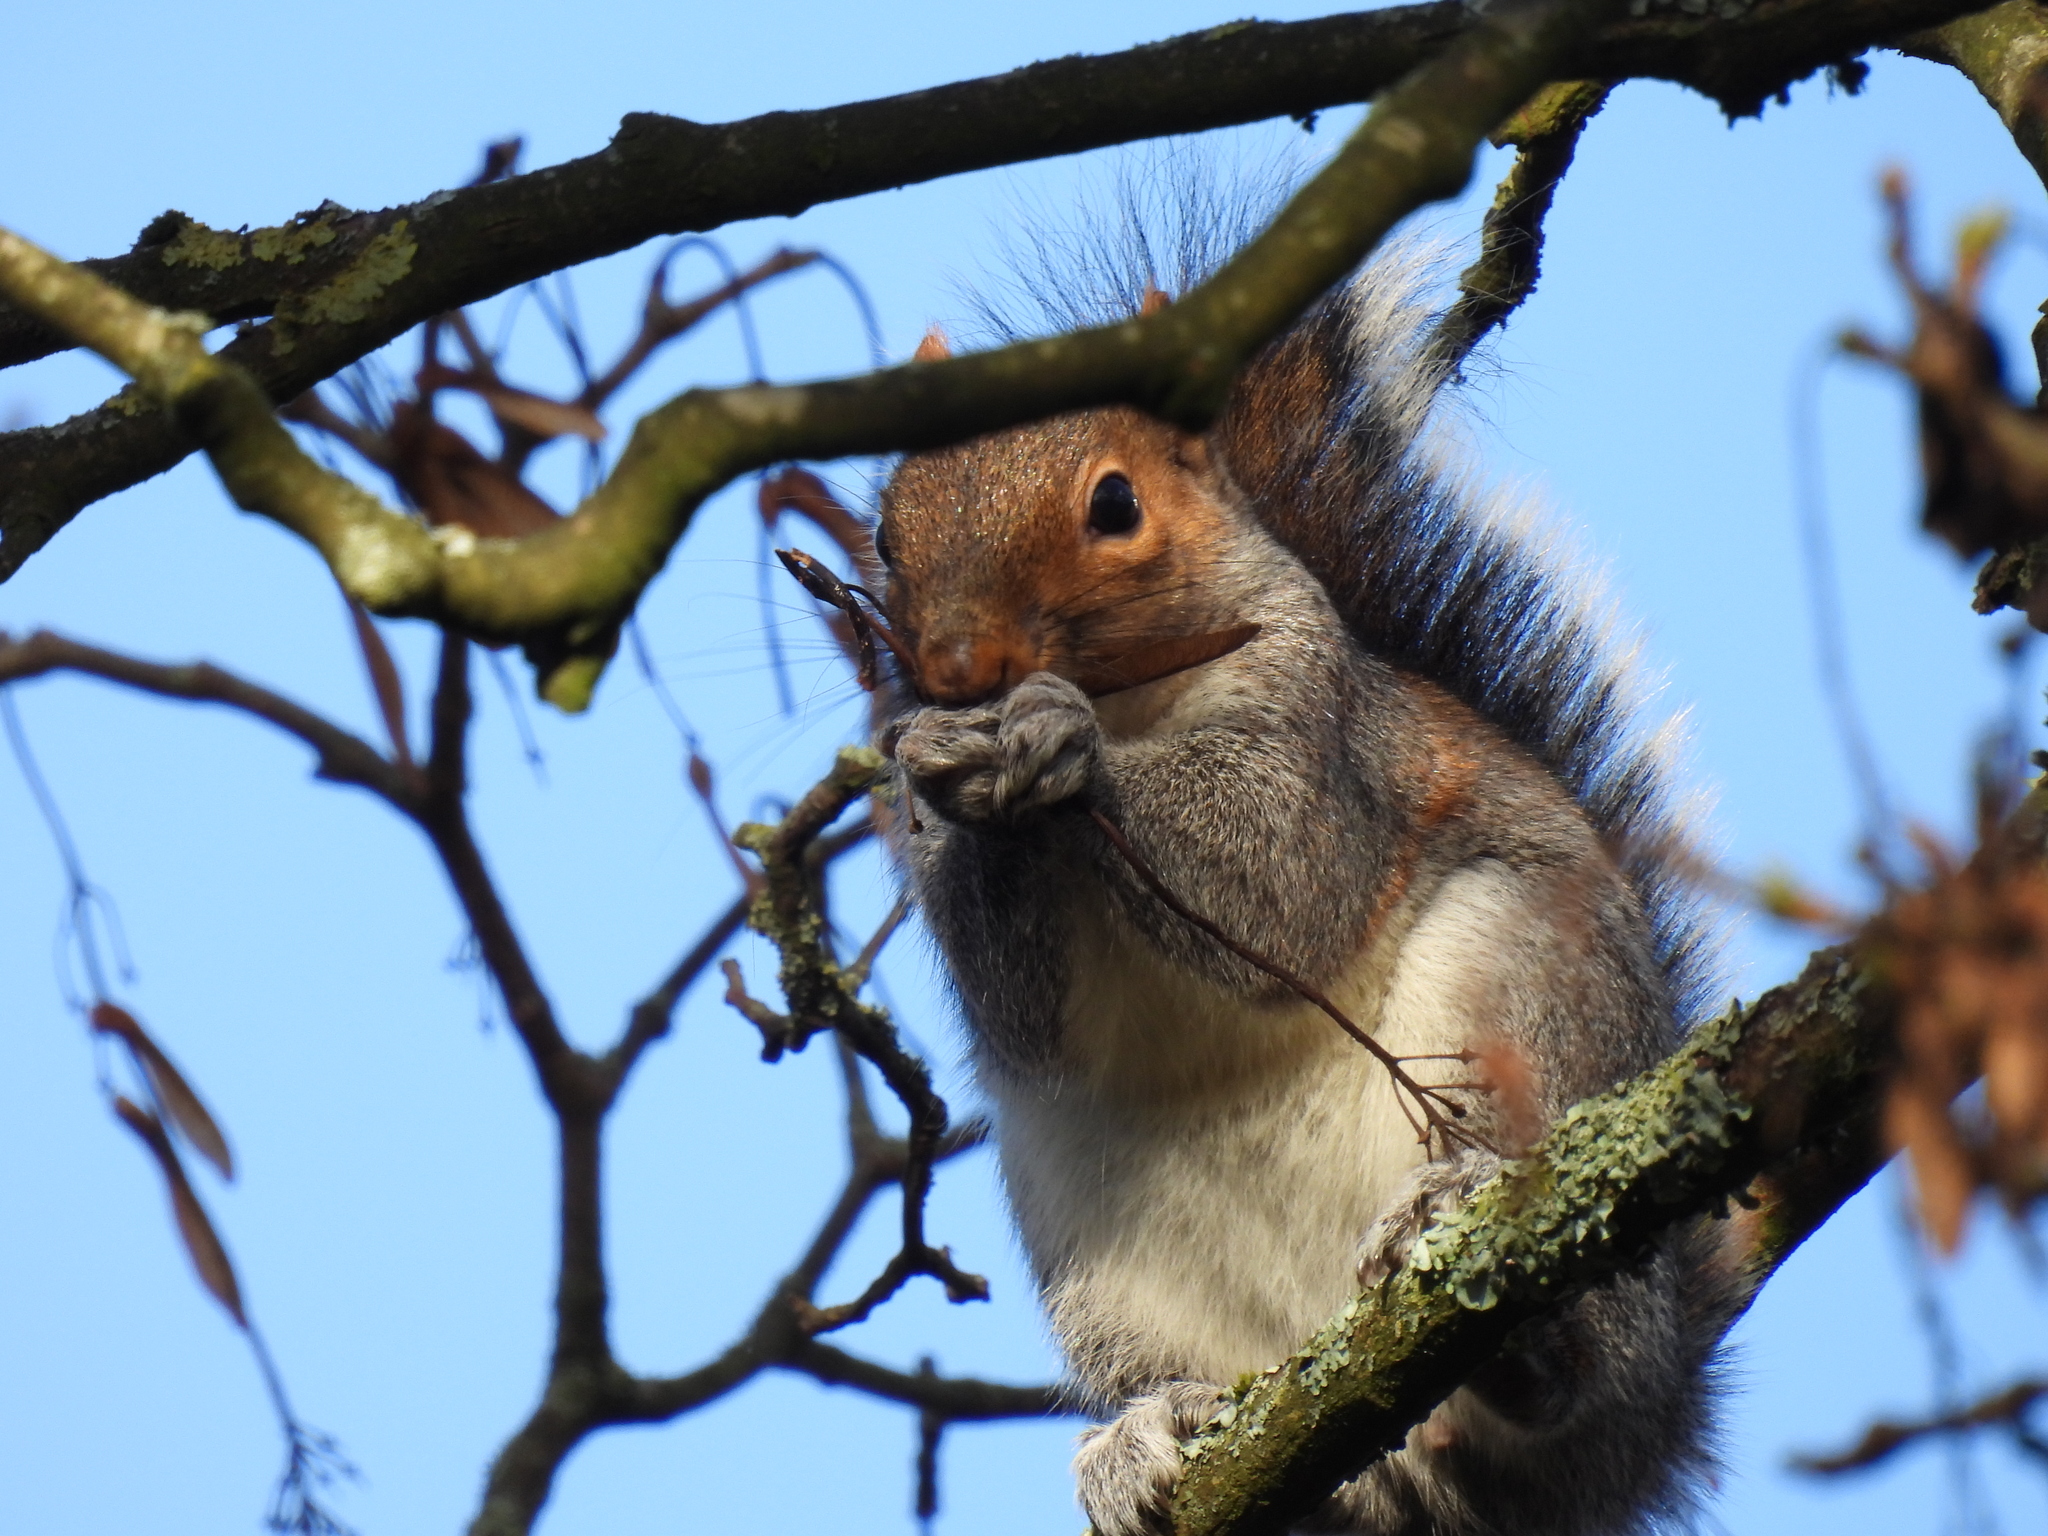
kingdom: Animalia
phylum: Chordata
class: Mammalia
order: Rodentia
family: Sciuridae
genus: Sciurus
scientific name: Sciurus carolinensis
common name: Eastern gray squirrel
